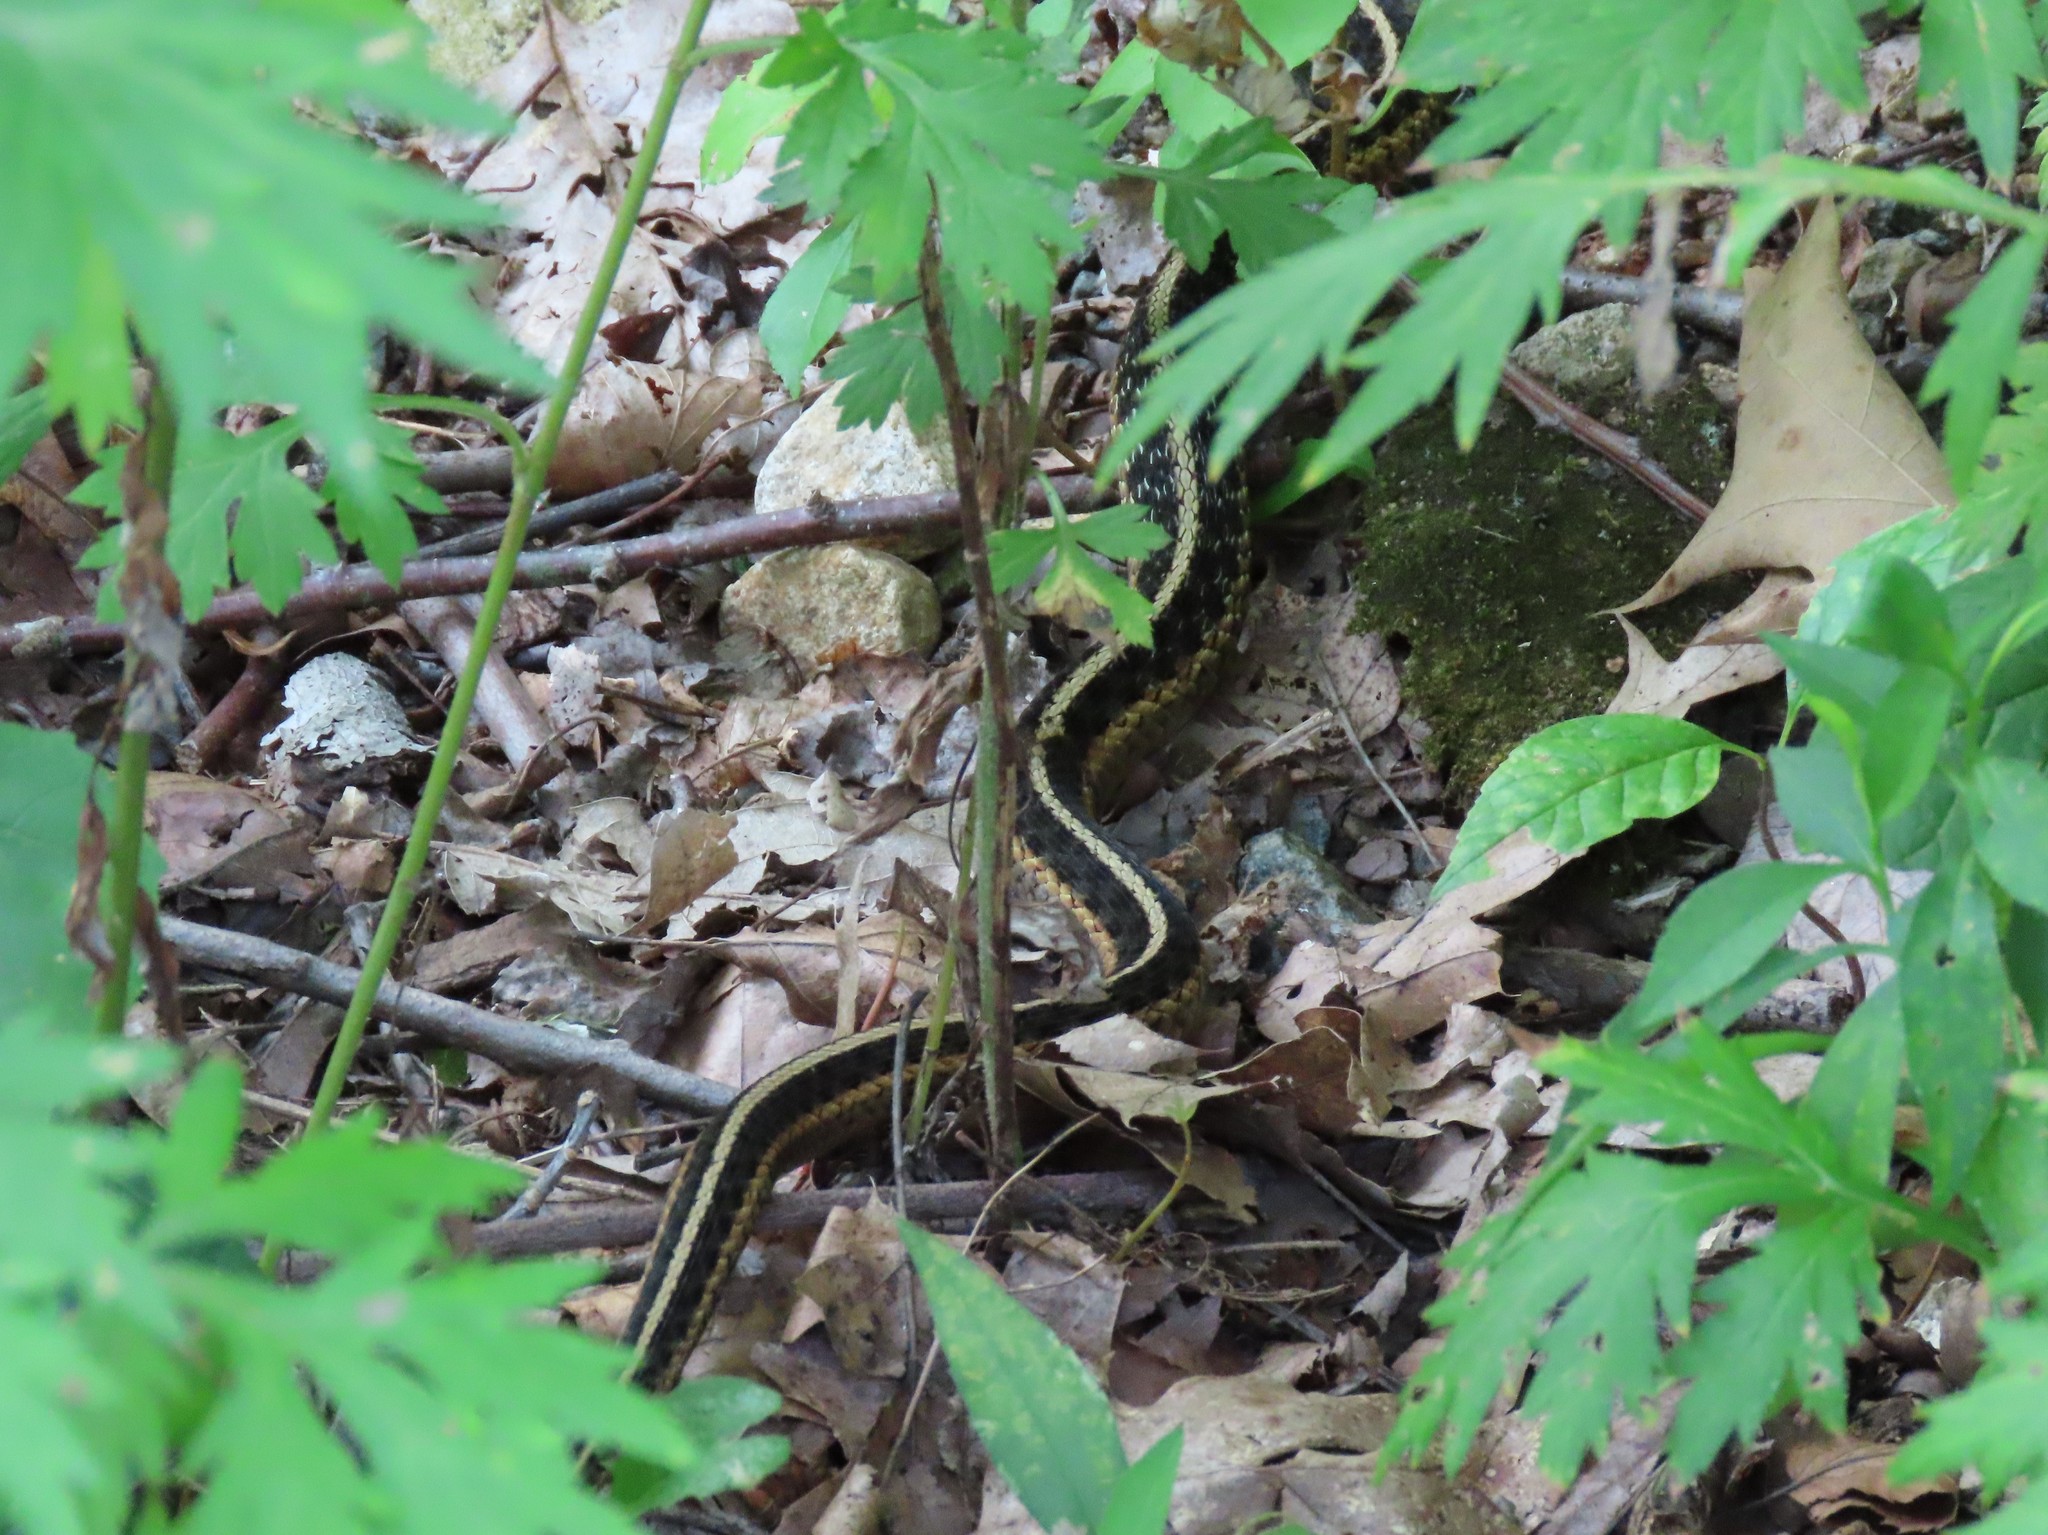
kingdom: Animalia
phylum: Chordata
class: Squamata
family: Colubridae
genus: Thamnophis
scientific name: Thamnophis sirtalis
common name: Common garter snake
